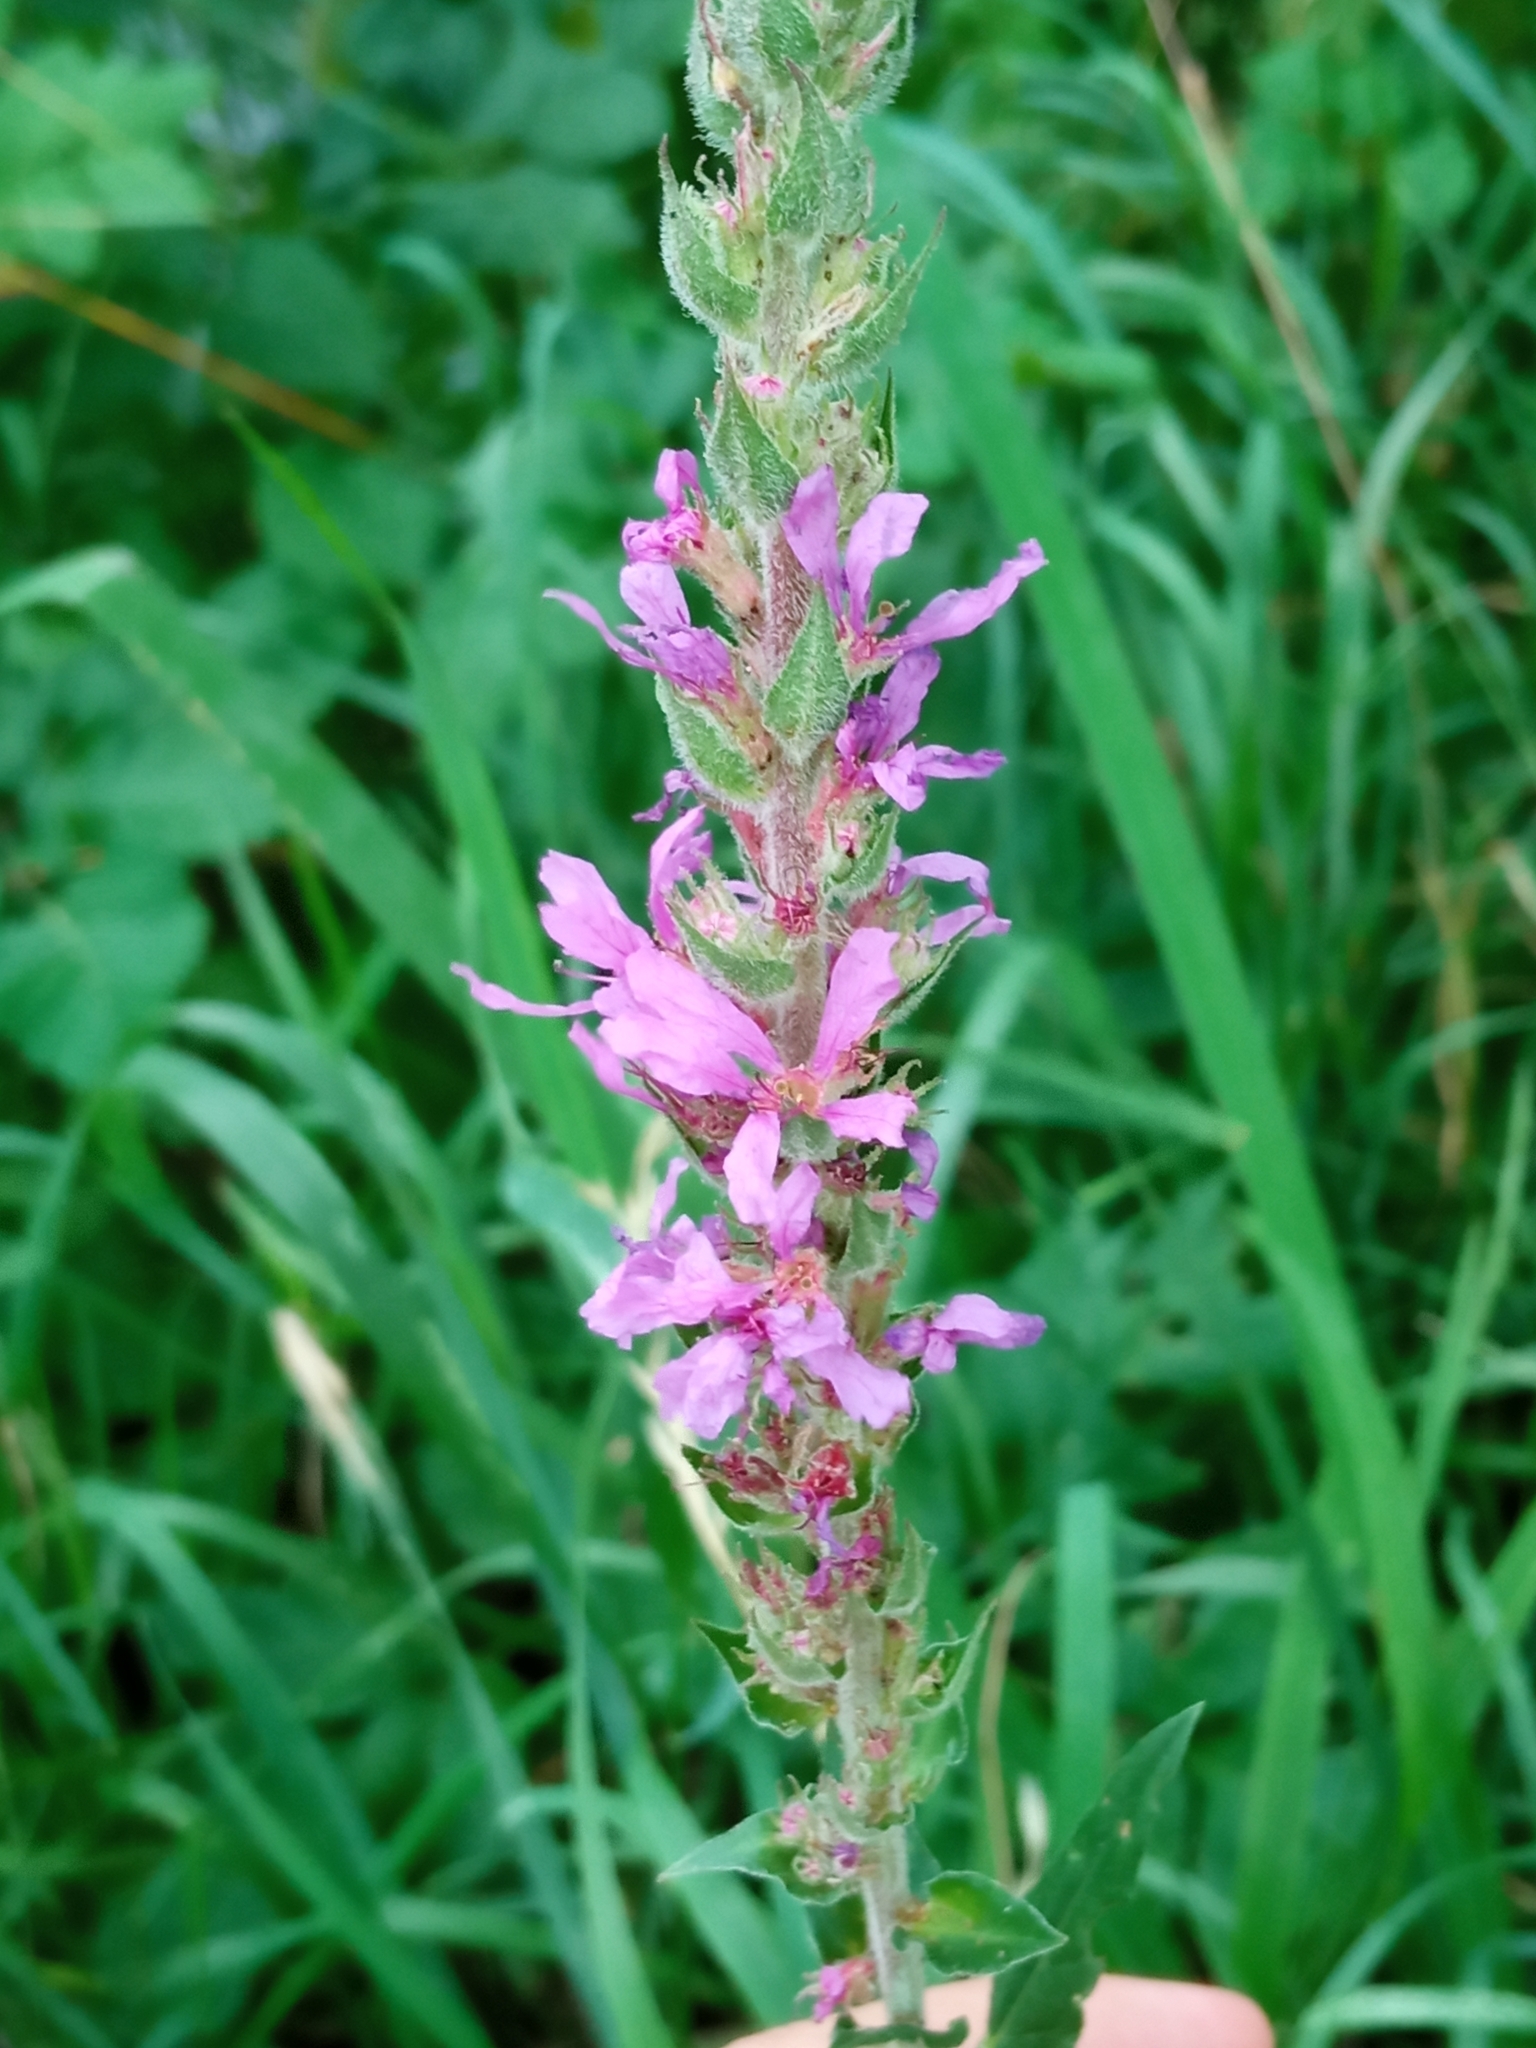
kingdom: Plantae
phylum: Tracheophyta
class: Magnoliopsida
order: Myrtales
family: Lythraceae
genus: Lythrum
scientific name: Lythrum salicaria
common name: Purple loosestrife
